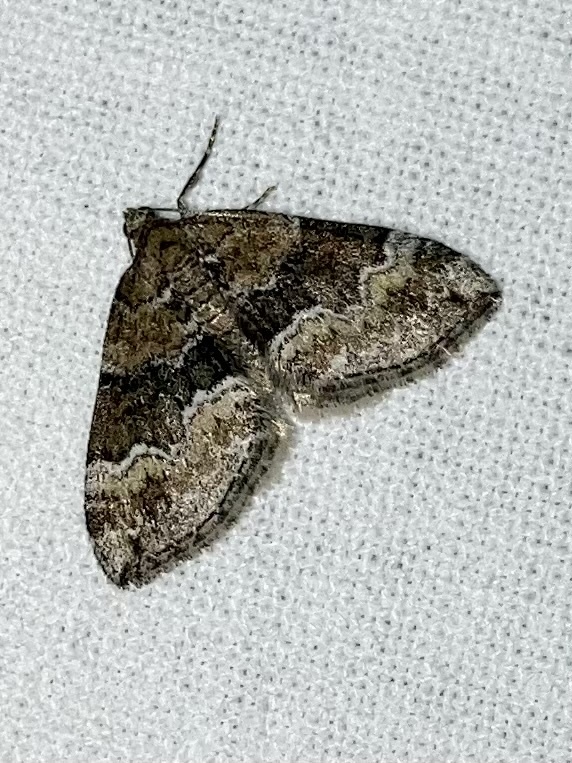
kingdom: Animalia
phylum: Arthropoda
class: Insecta
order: Lepidoptera
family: Geometridae
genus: Perizoma
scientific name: Perizoma bifaciata
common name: Barred rivulet
